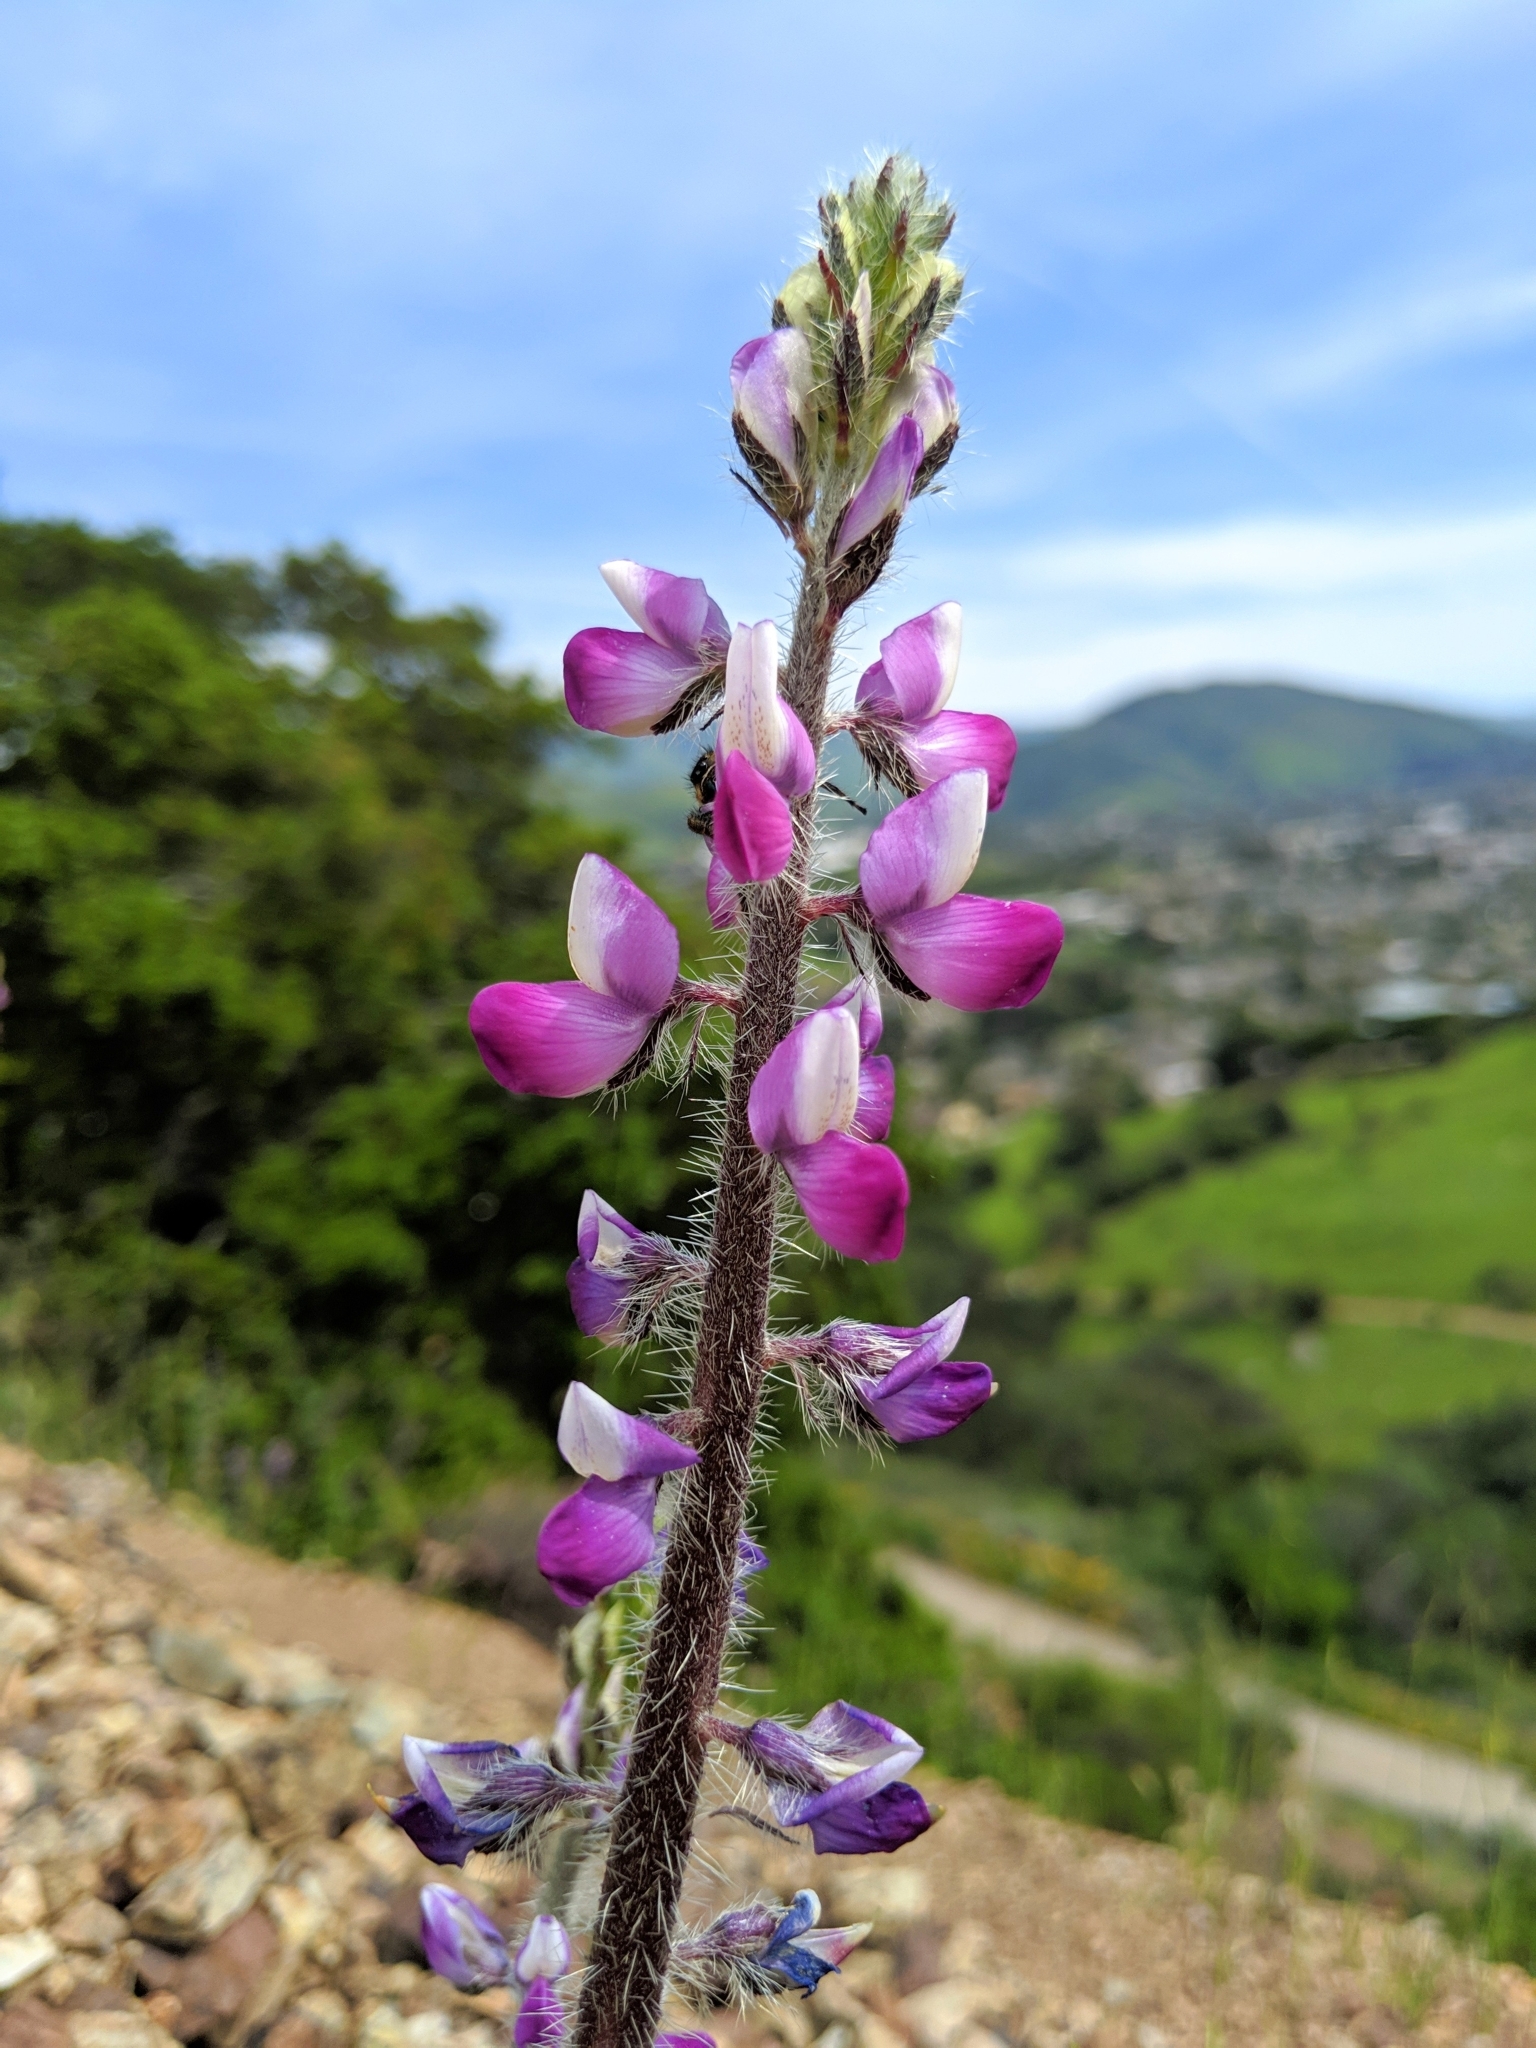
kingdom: Plantae
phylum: Tracheophyta
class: Magnoliopsida
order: Fabales
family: Fabaceae
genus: Lupinus
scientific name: Lupinus hirsutissimus
